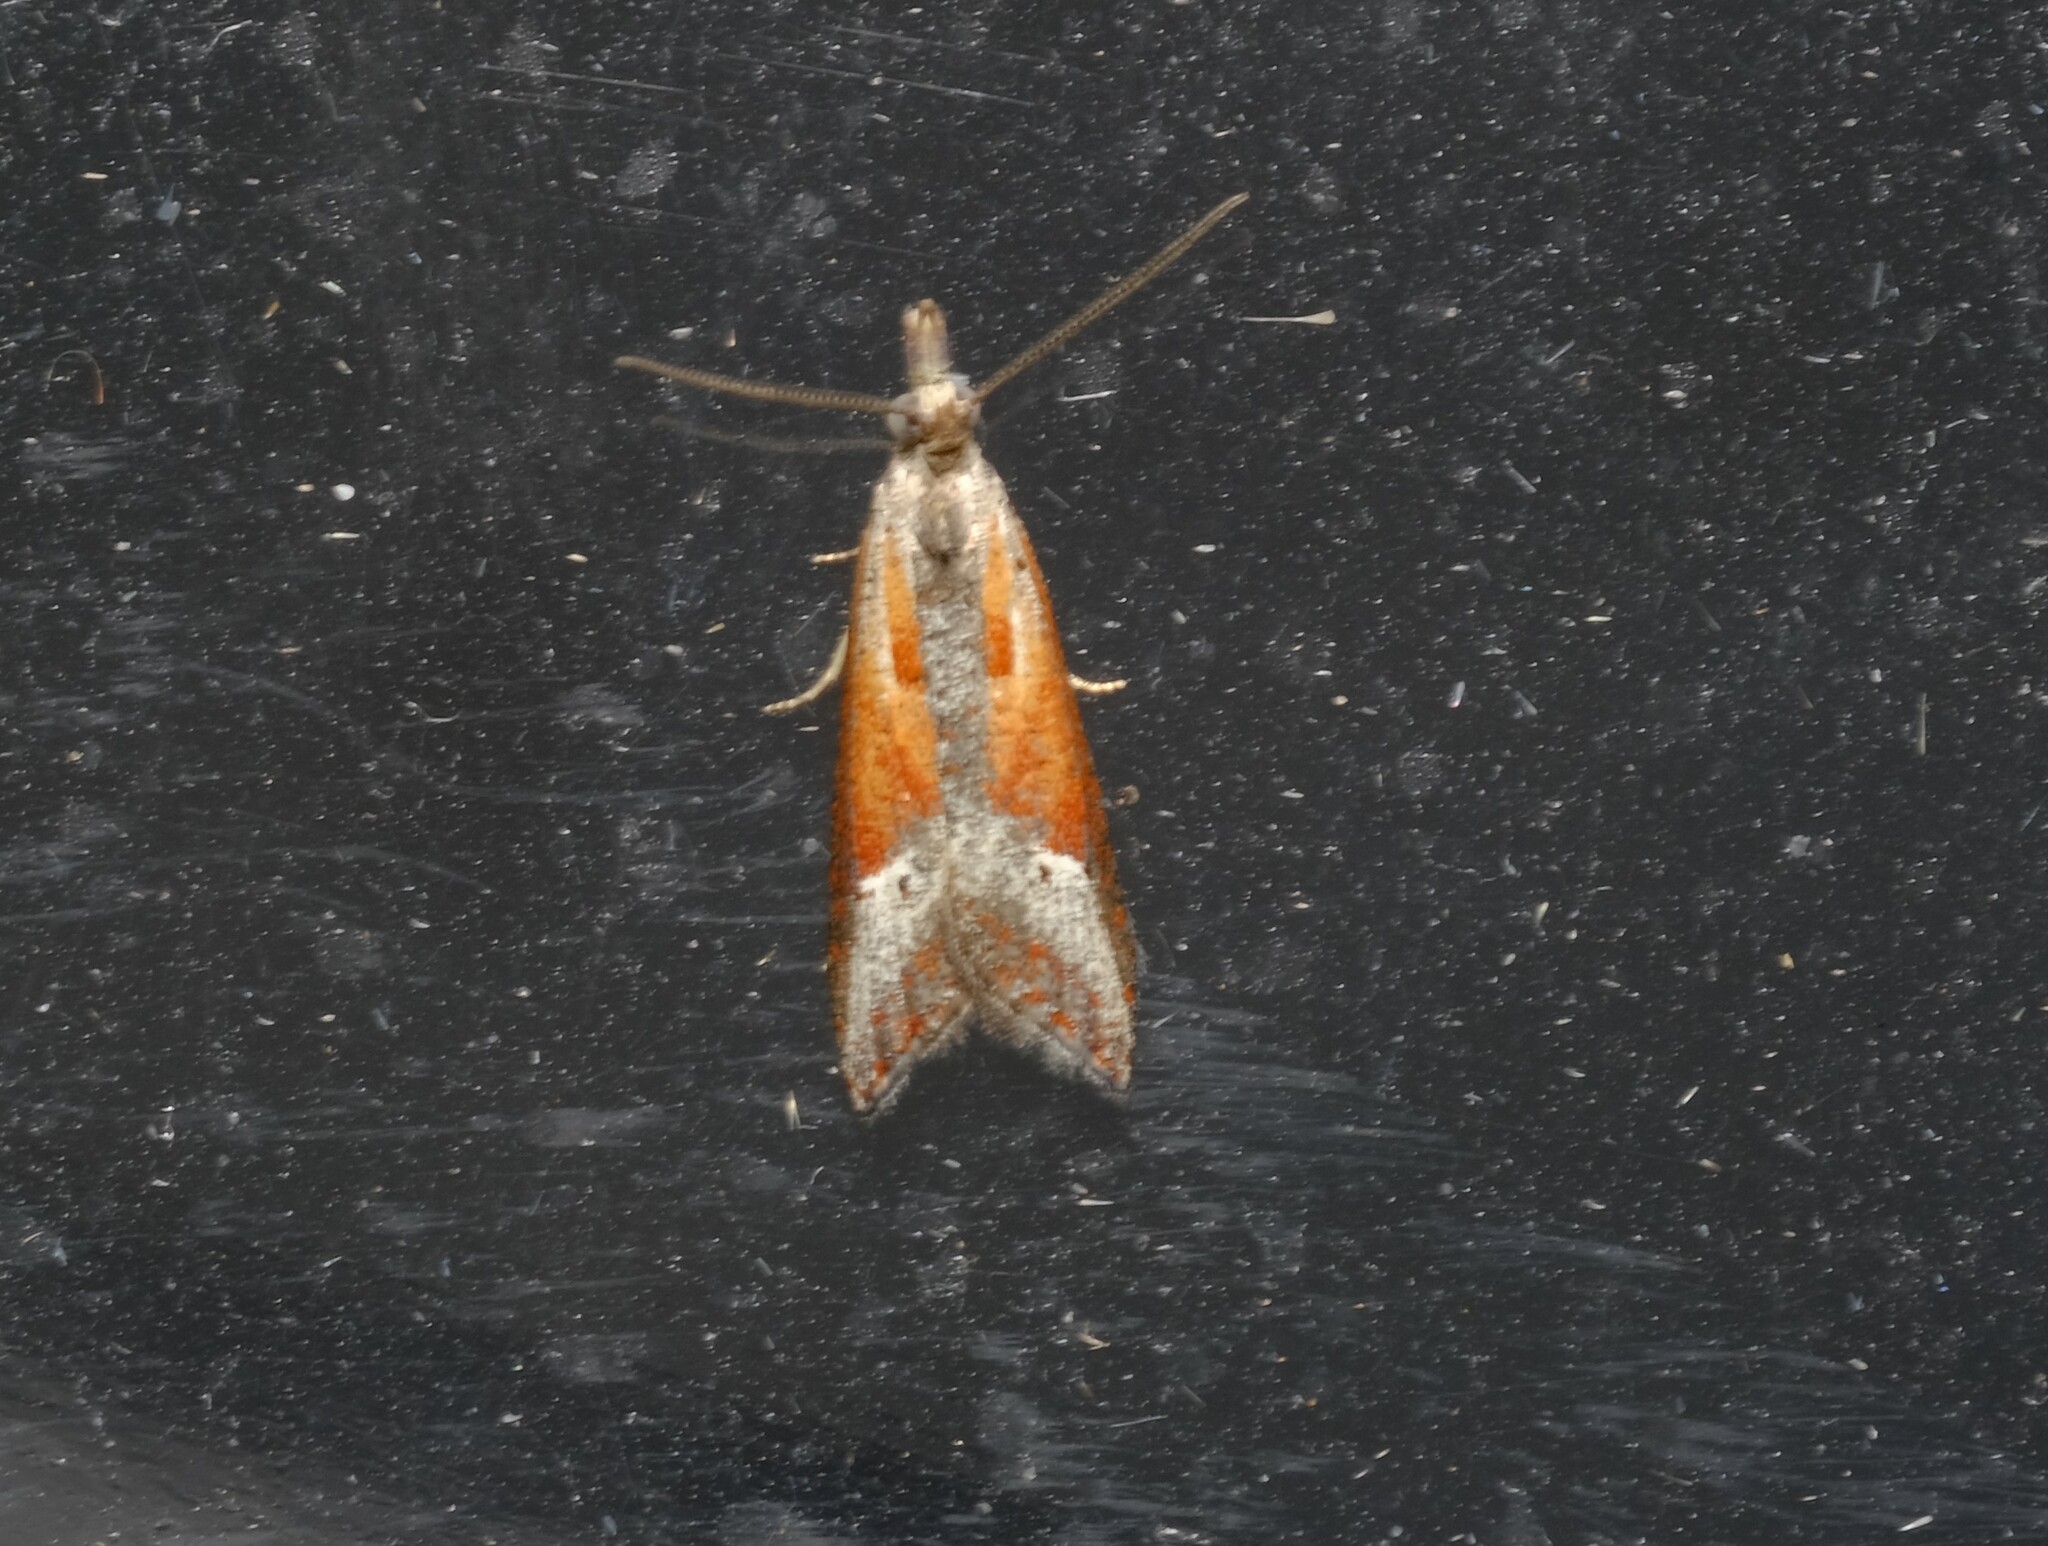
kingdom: Animalia
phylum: Arthropoda
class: Insecta
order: Lepidoptera
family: Tortricidae
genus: Arotrophora
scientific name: Arotrophora arcuatalis
